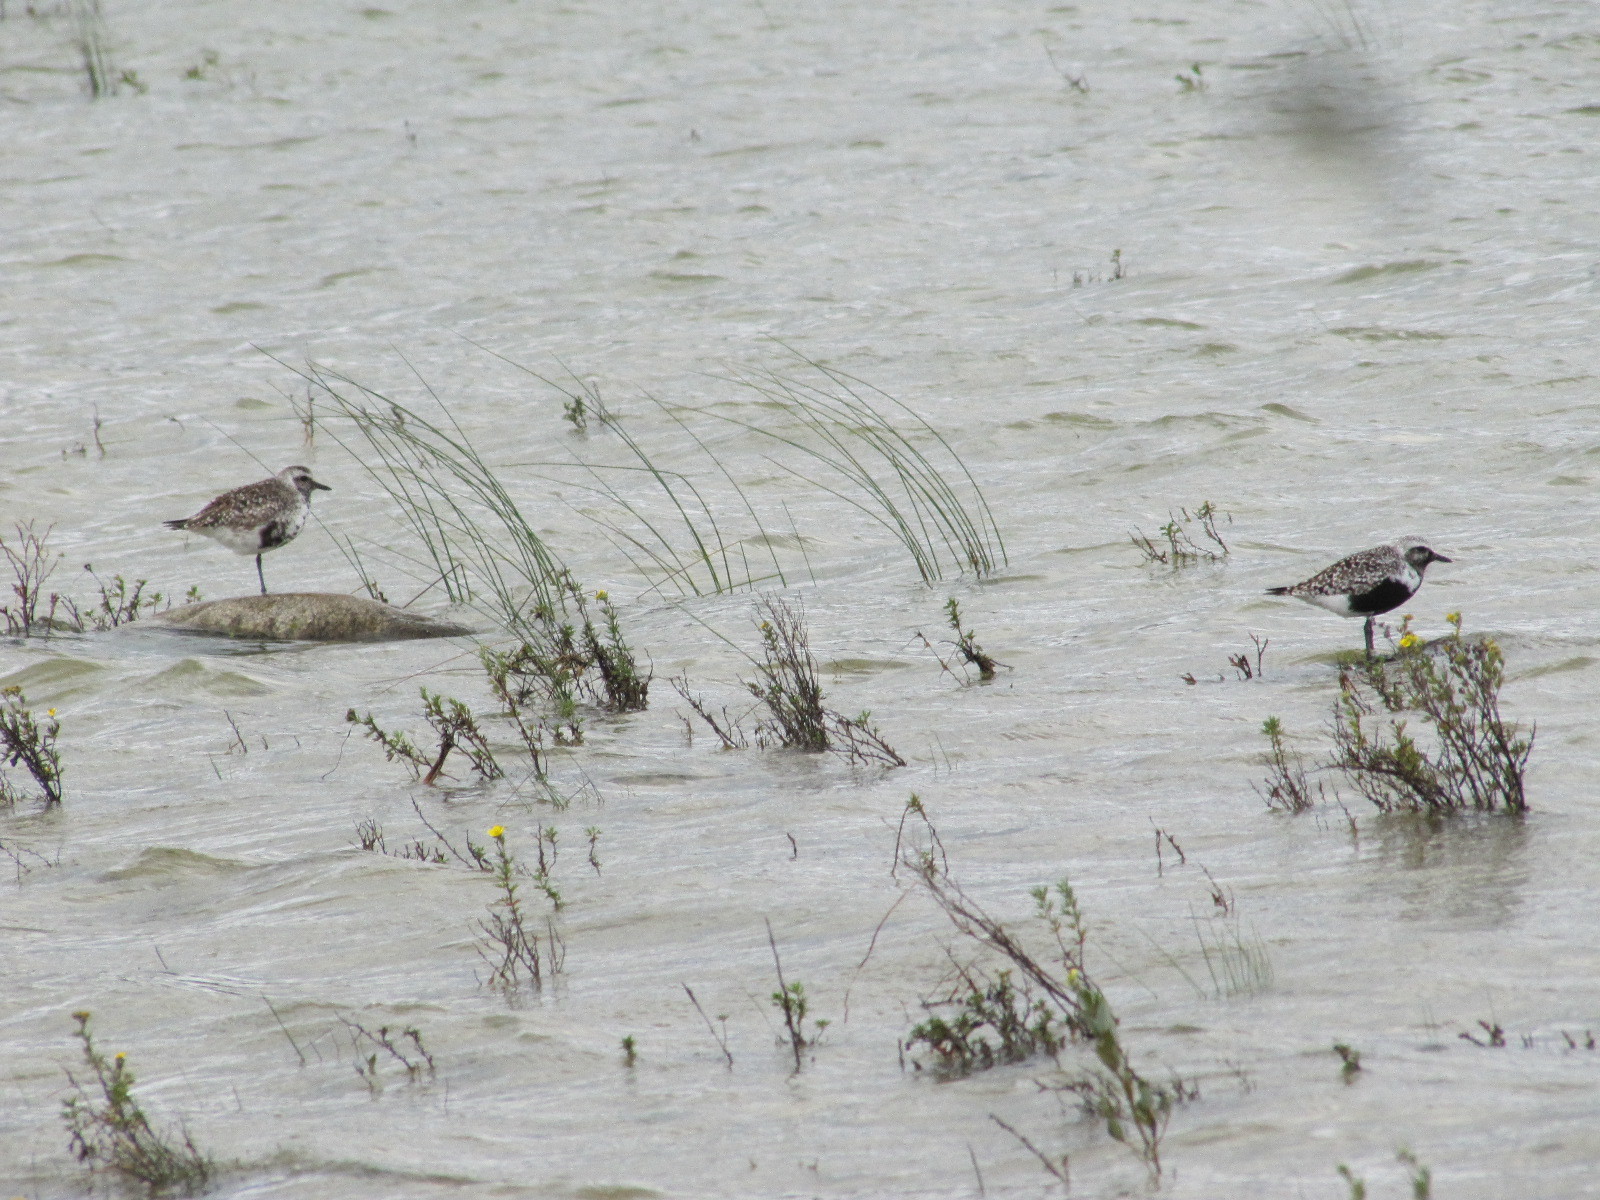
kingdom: Animalia
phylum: Chordata
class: Aves
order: Charadriiformes
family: Charadriidae
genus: Pluvialis
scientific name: Pluvialis squatarola
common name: Grey plover
